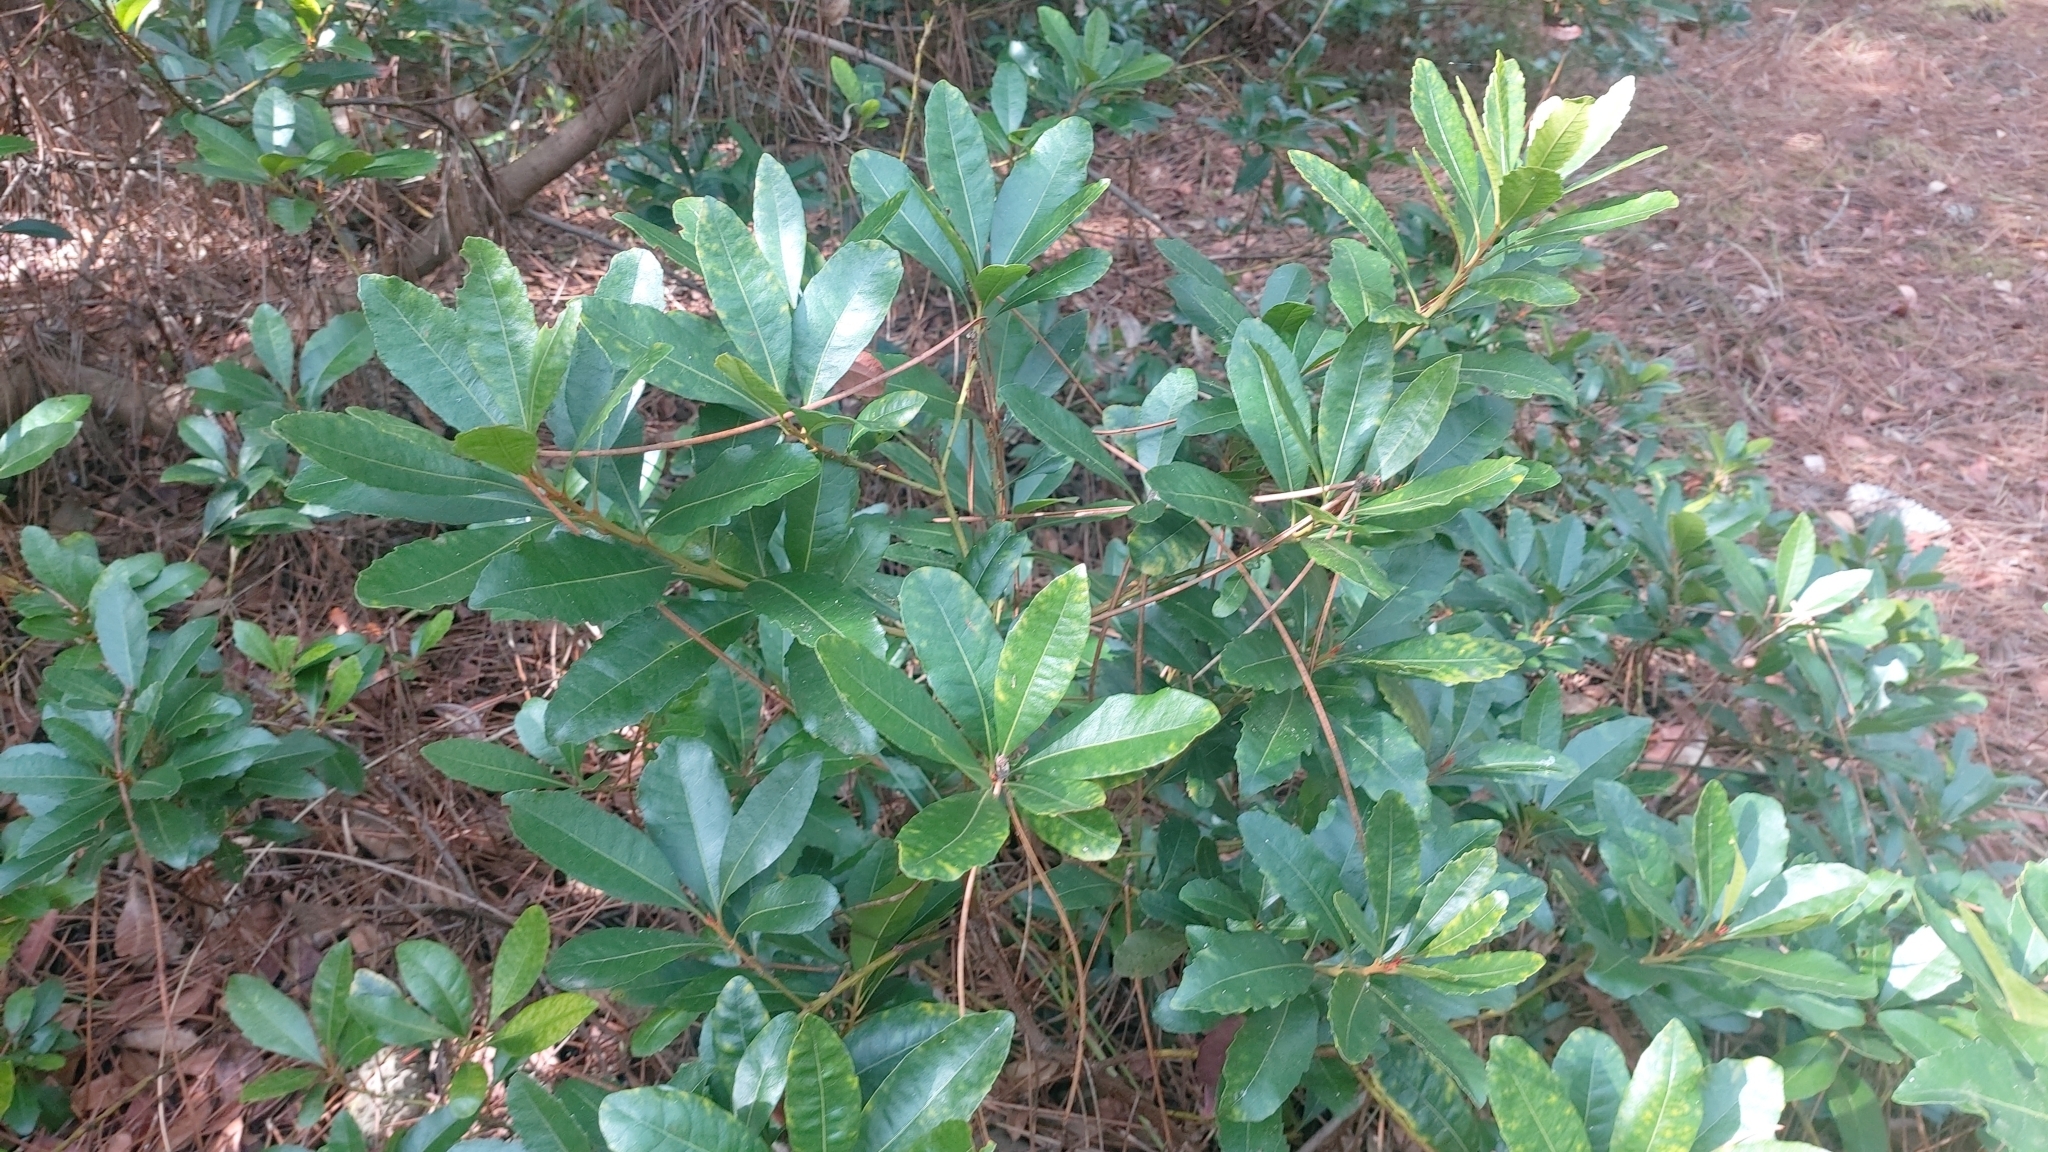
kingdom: Plantae
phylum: Tracheophyta
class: Magnoliopsida
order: Fagales
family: Myricaceae
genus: Morella
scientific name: Morella faya
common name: Firetree
